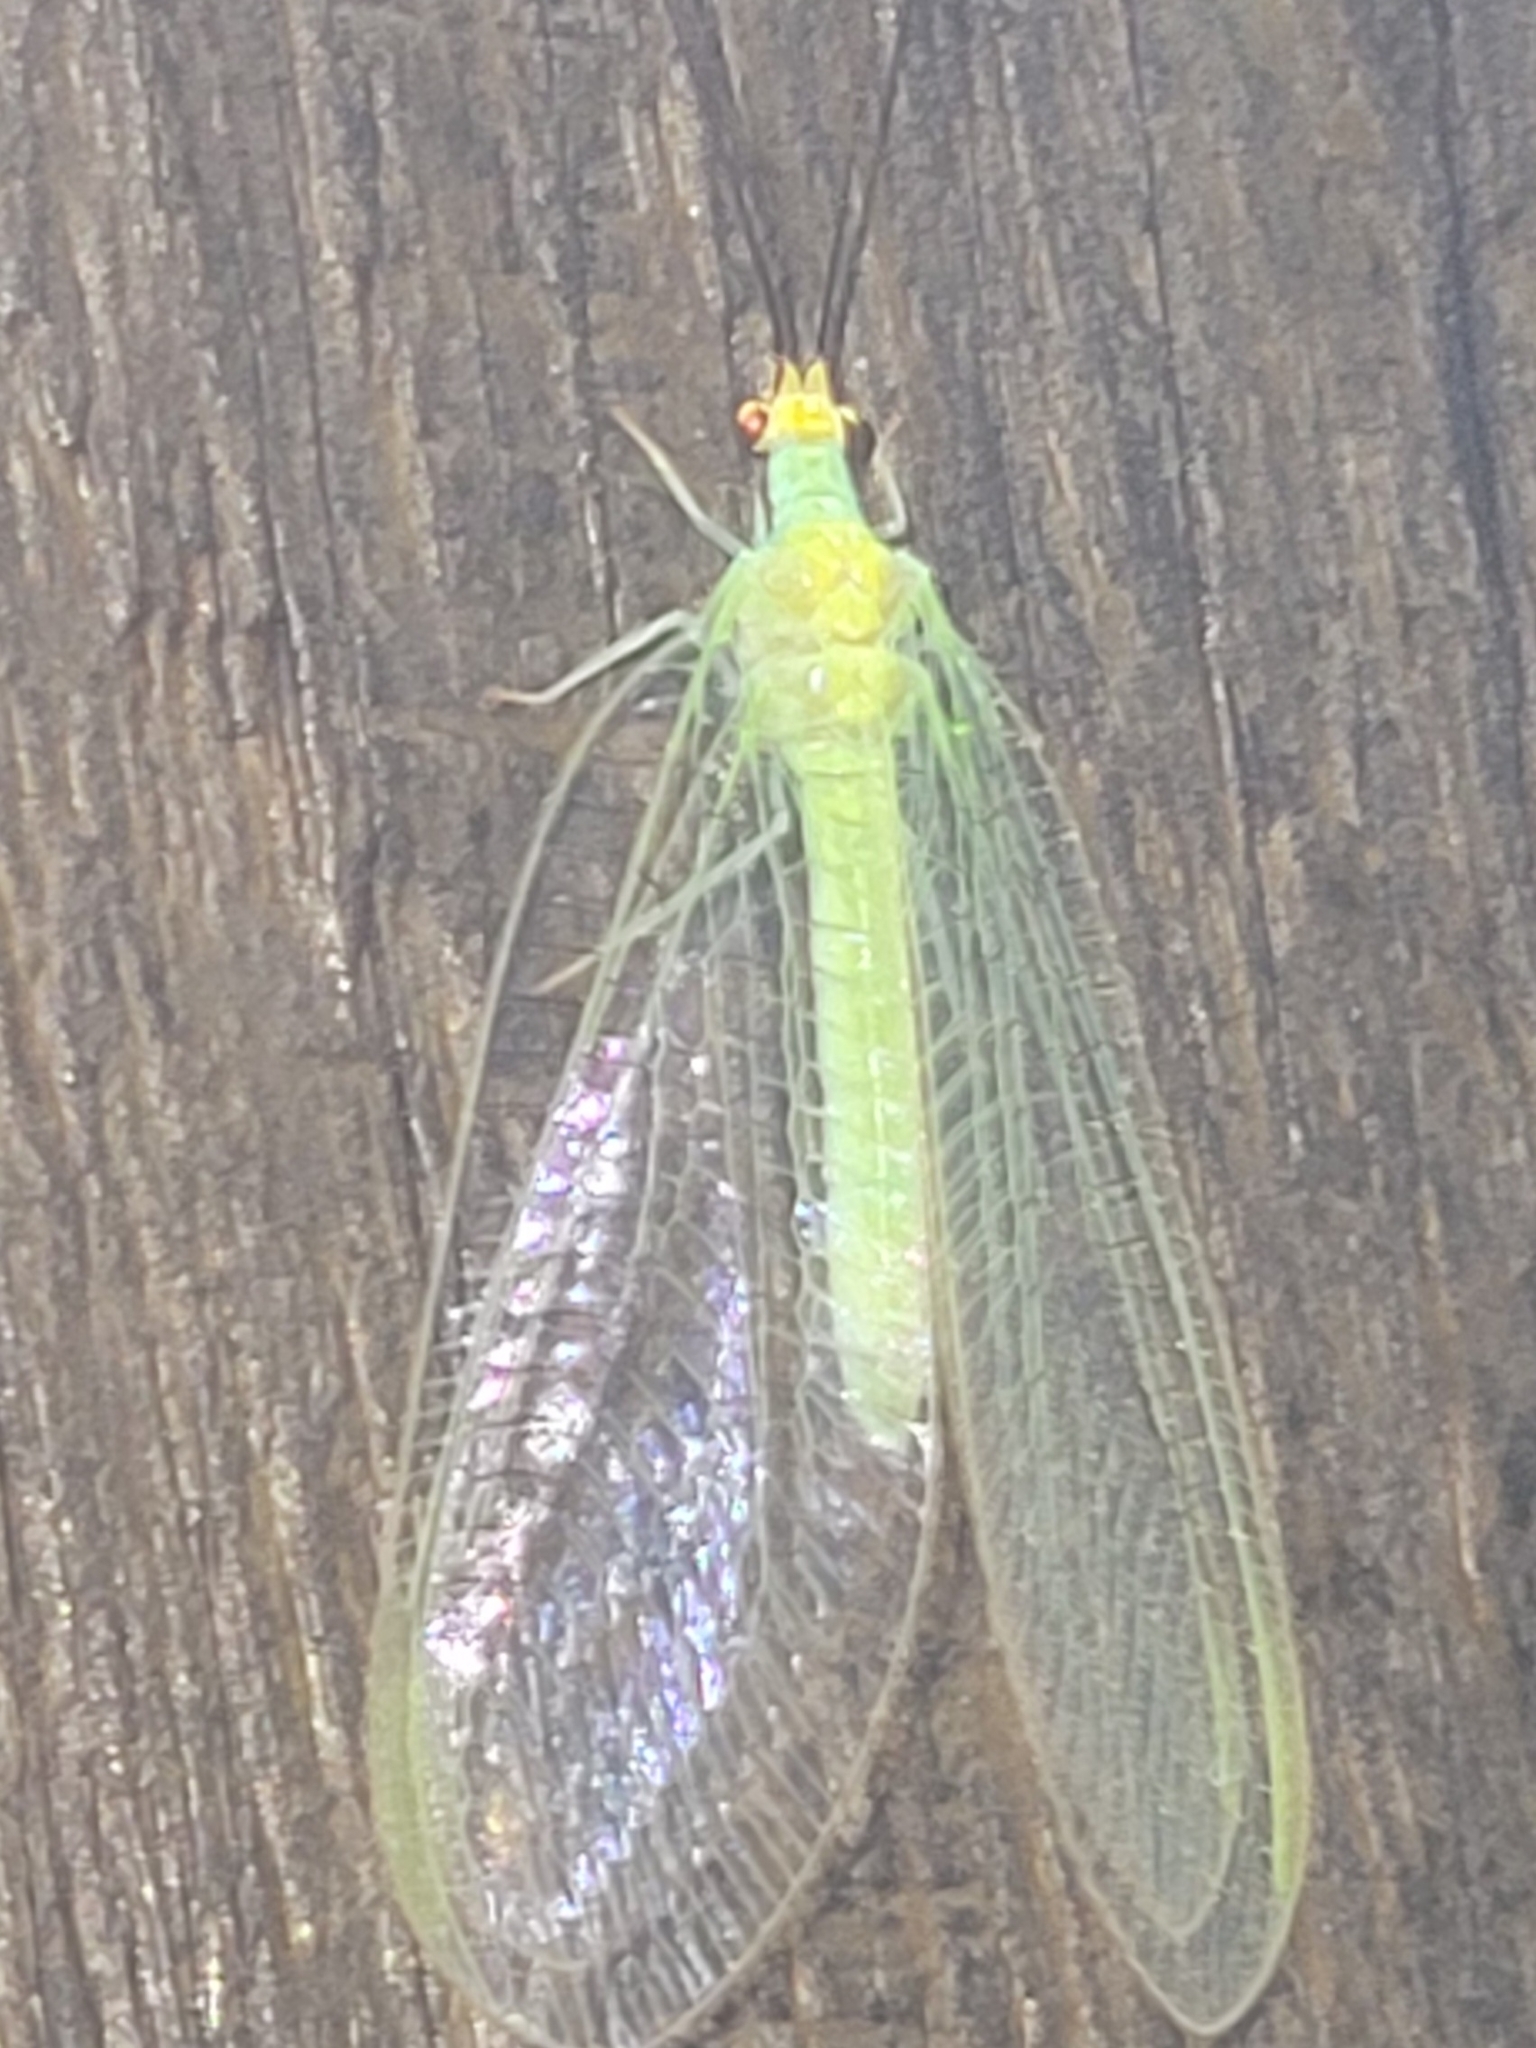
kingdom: Animalia
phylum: Arthropoda
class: Insecta
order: Neuroptera
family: Chrysopidae
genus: Leucochrysa
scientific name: Leucochrysa pavida
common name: Lichen-carrying green lacewing
